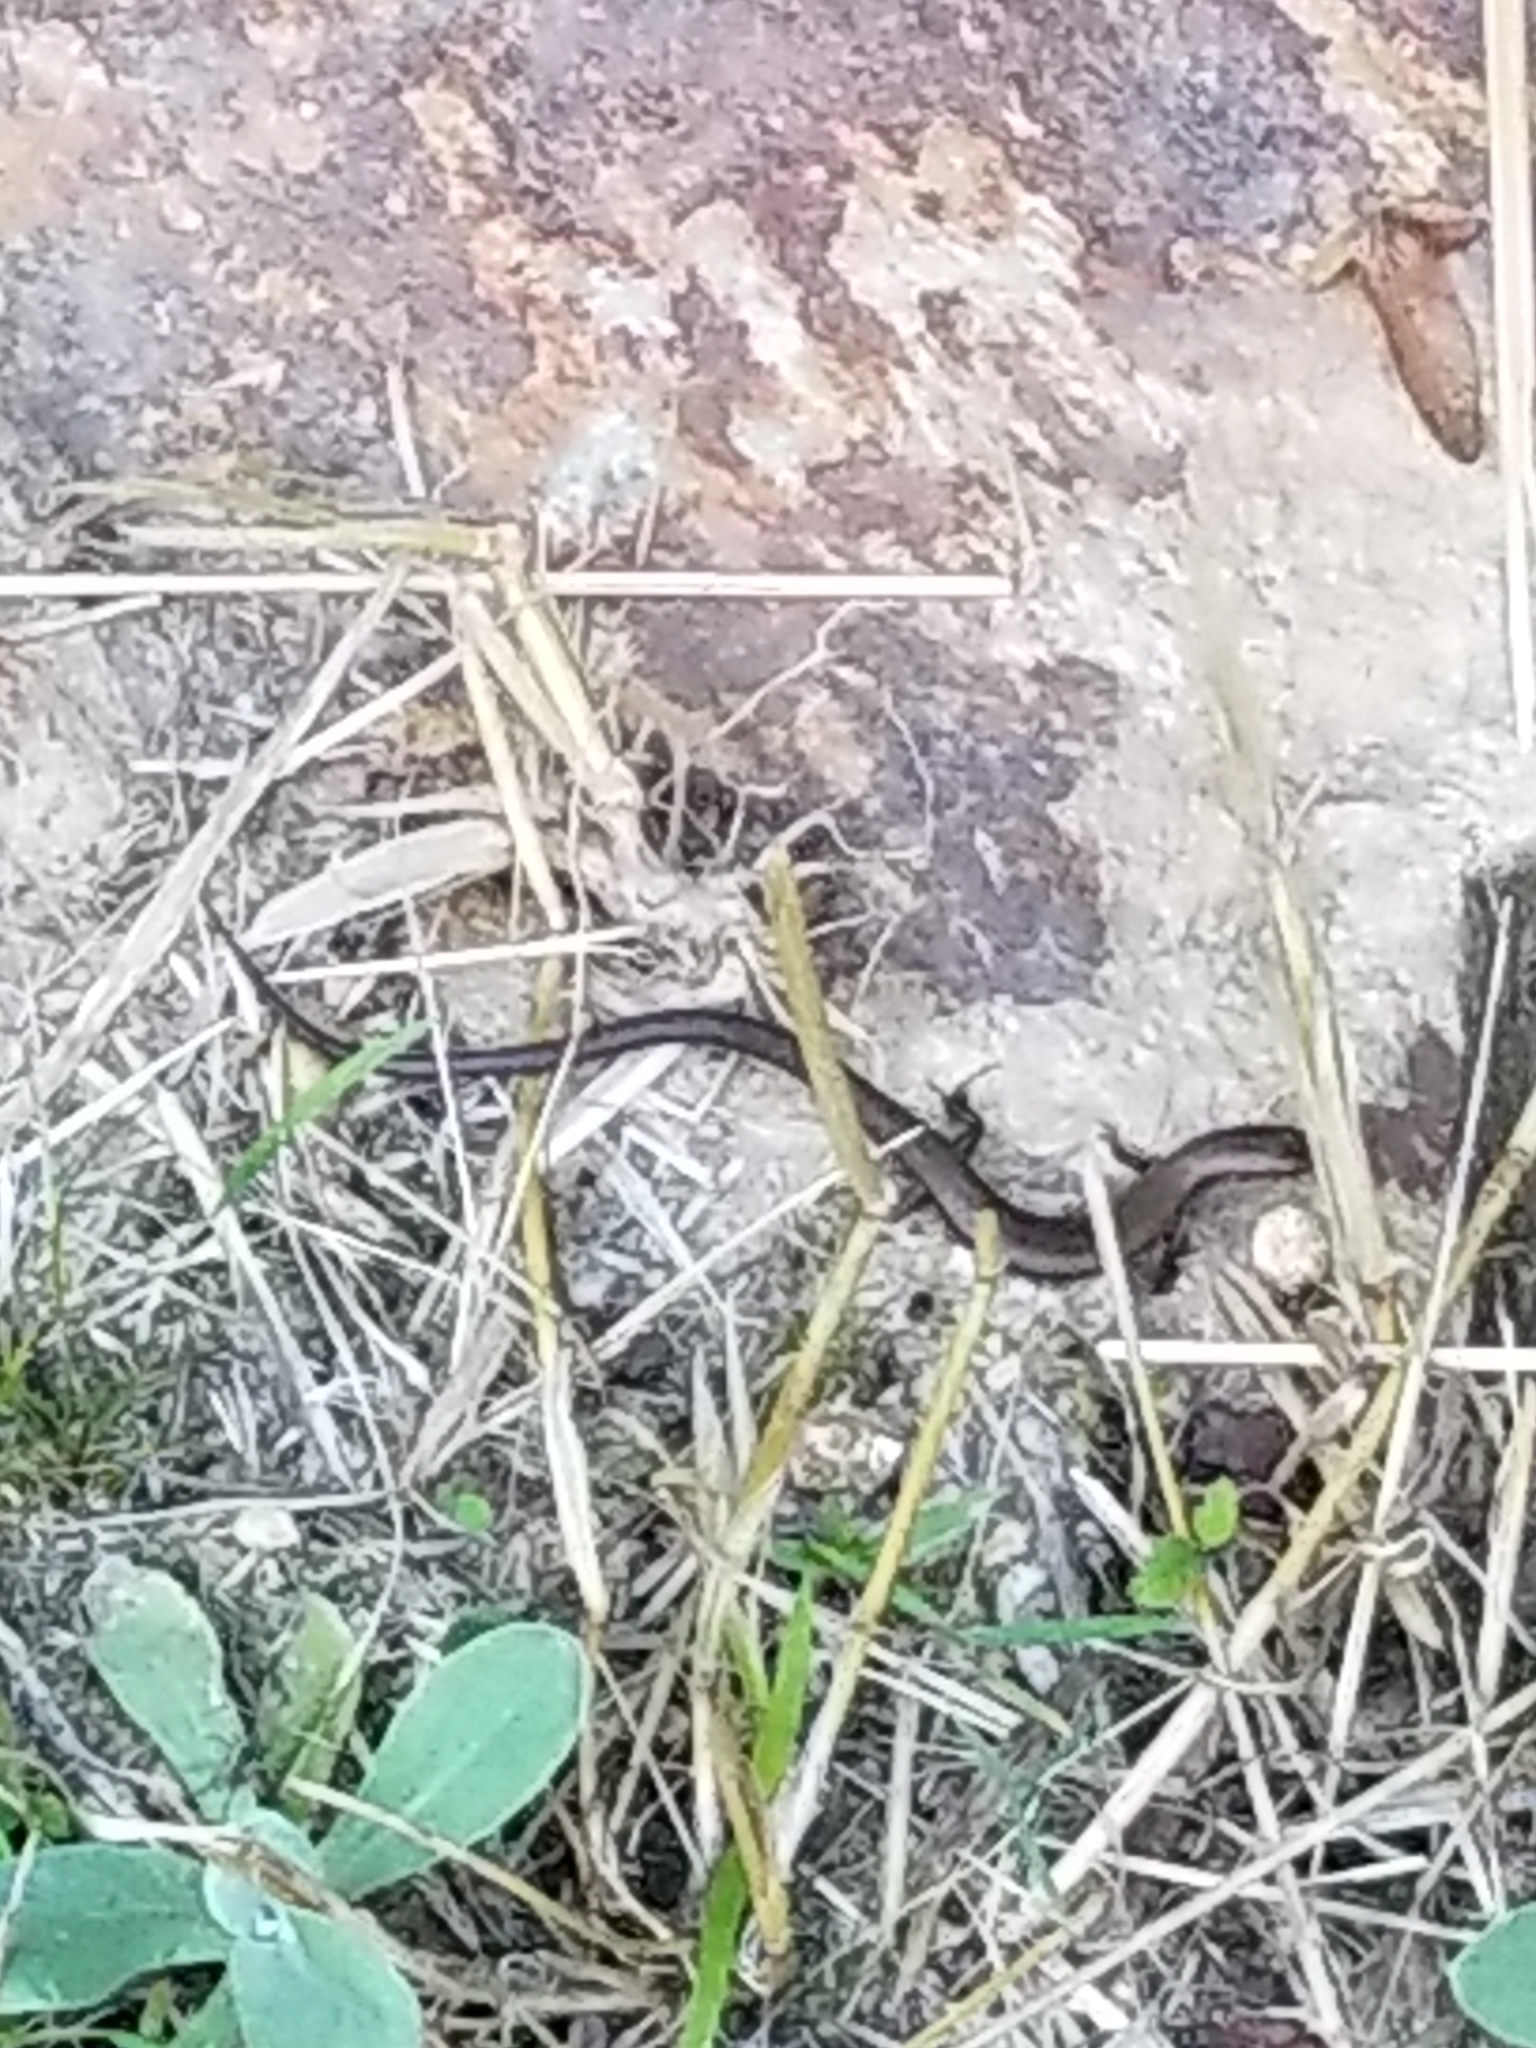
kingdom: Animalia
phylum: Chordata
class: Squamata
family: Scincidae
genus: Scincella
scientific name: Scincella lateralis
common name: Ground skink
